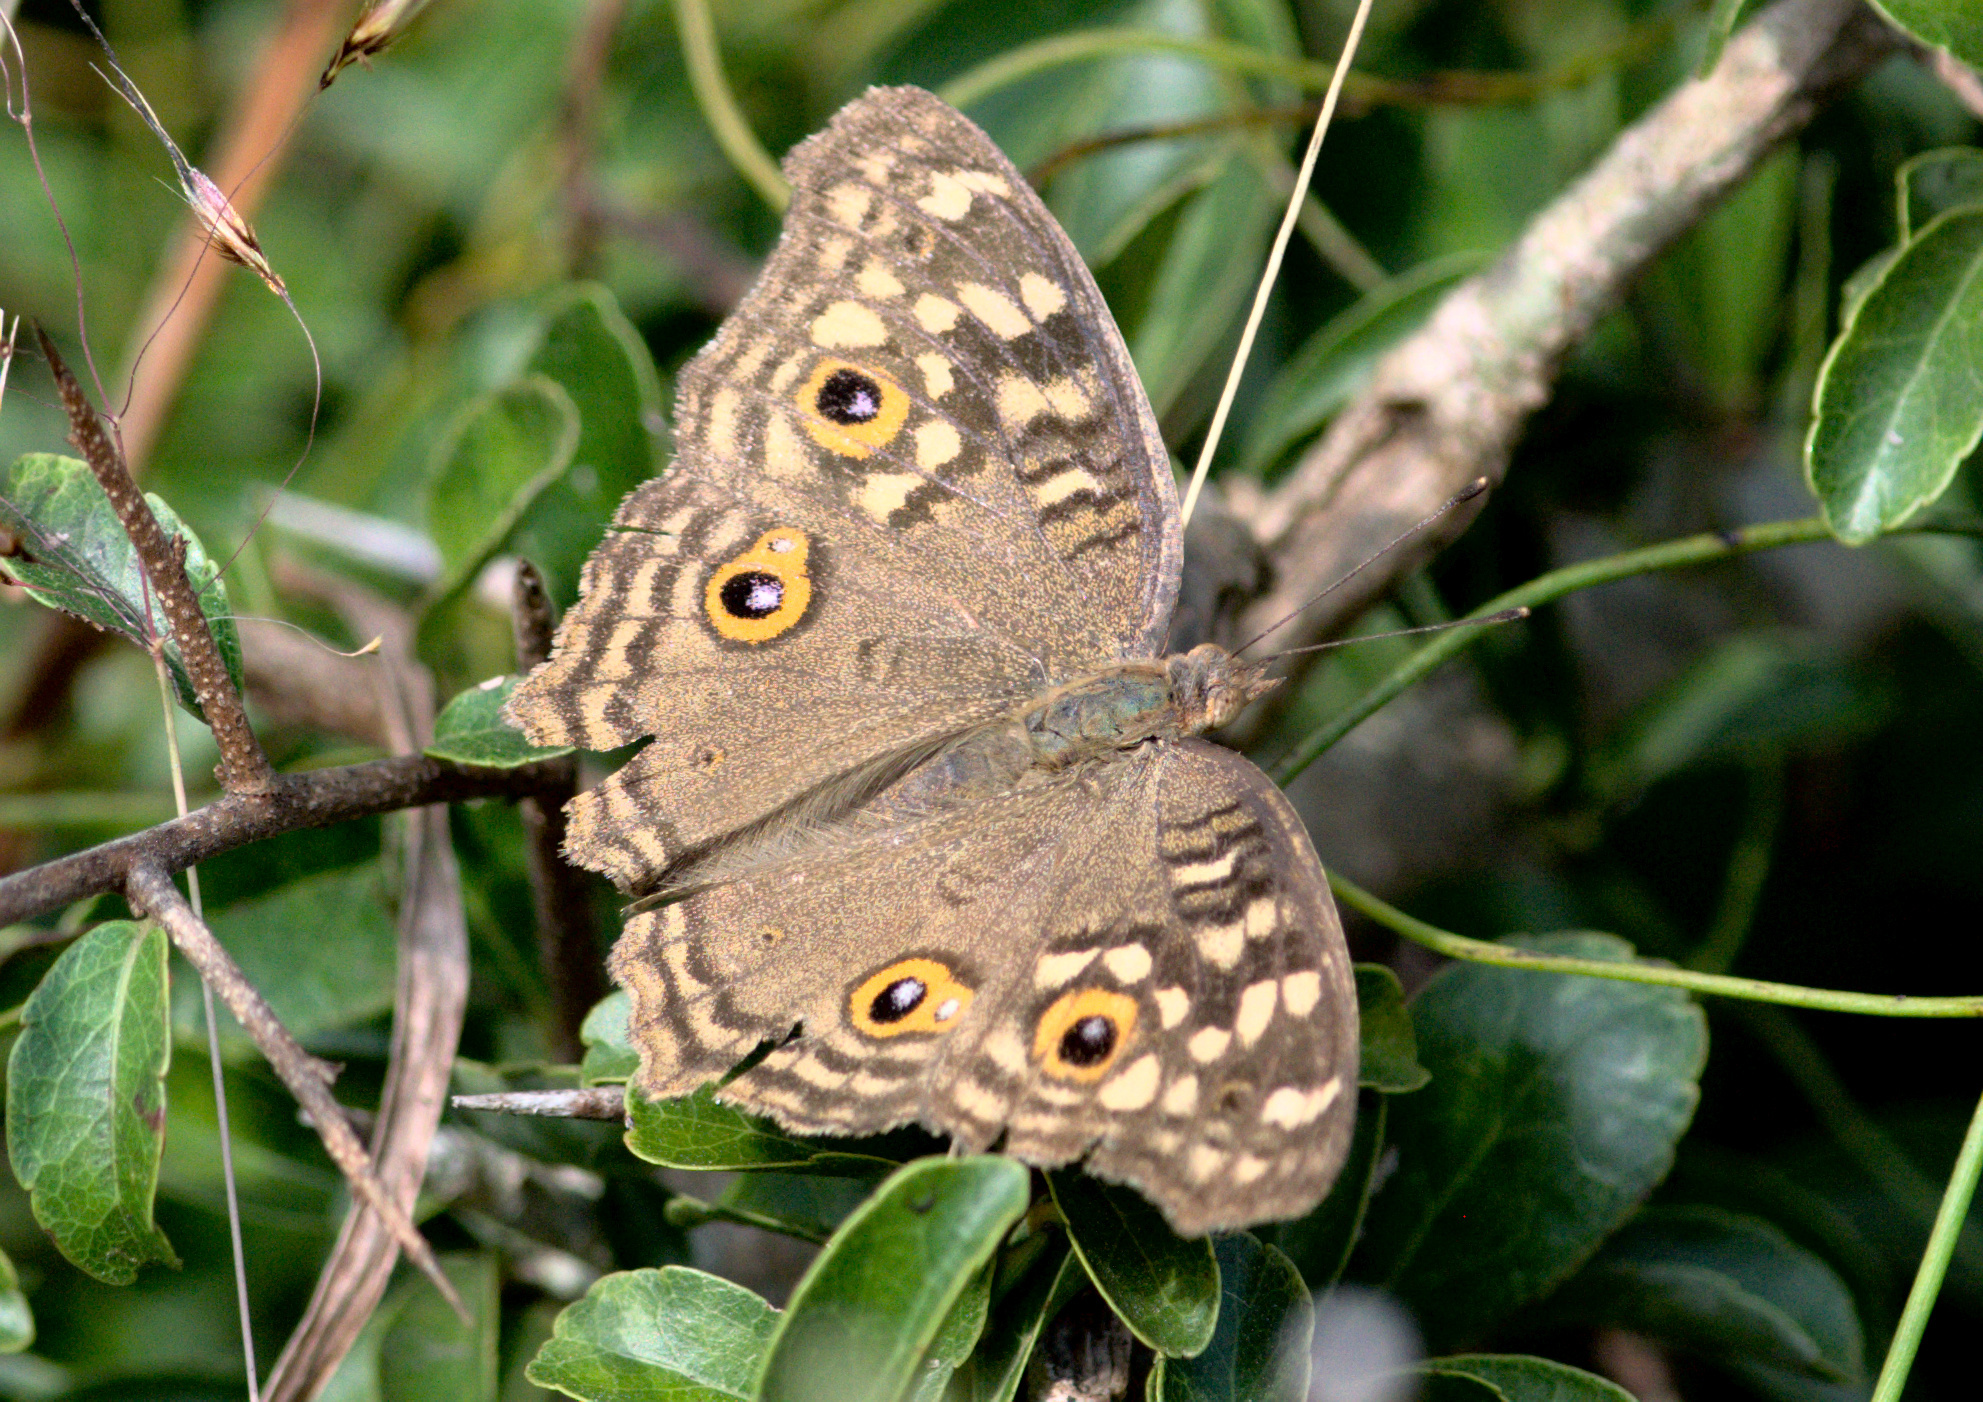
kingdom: Animalia
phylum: Arthropoda
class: Insecta
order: Lepidoptera
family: Nymphalidae
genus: Junonia
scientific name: Junonia lemonias
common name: Lemon pansy
